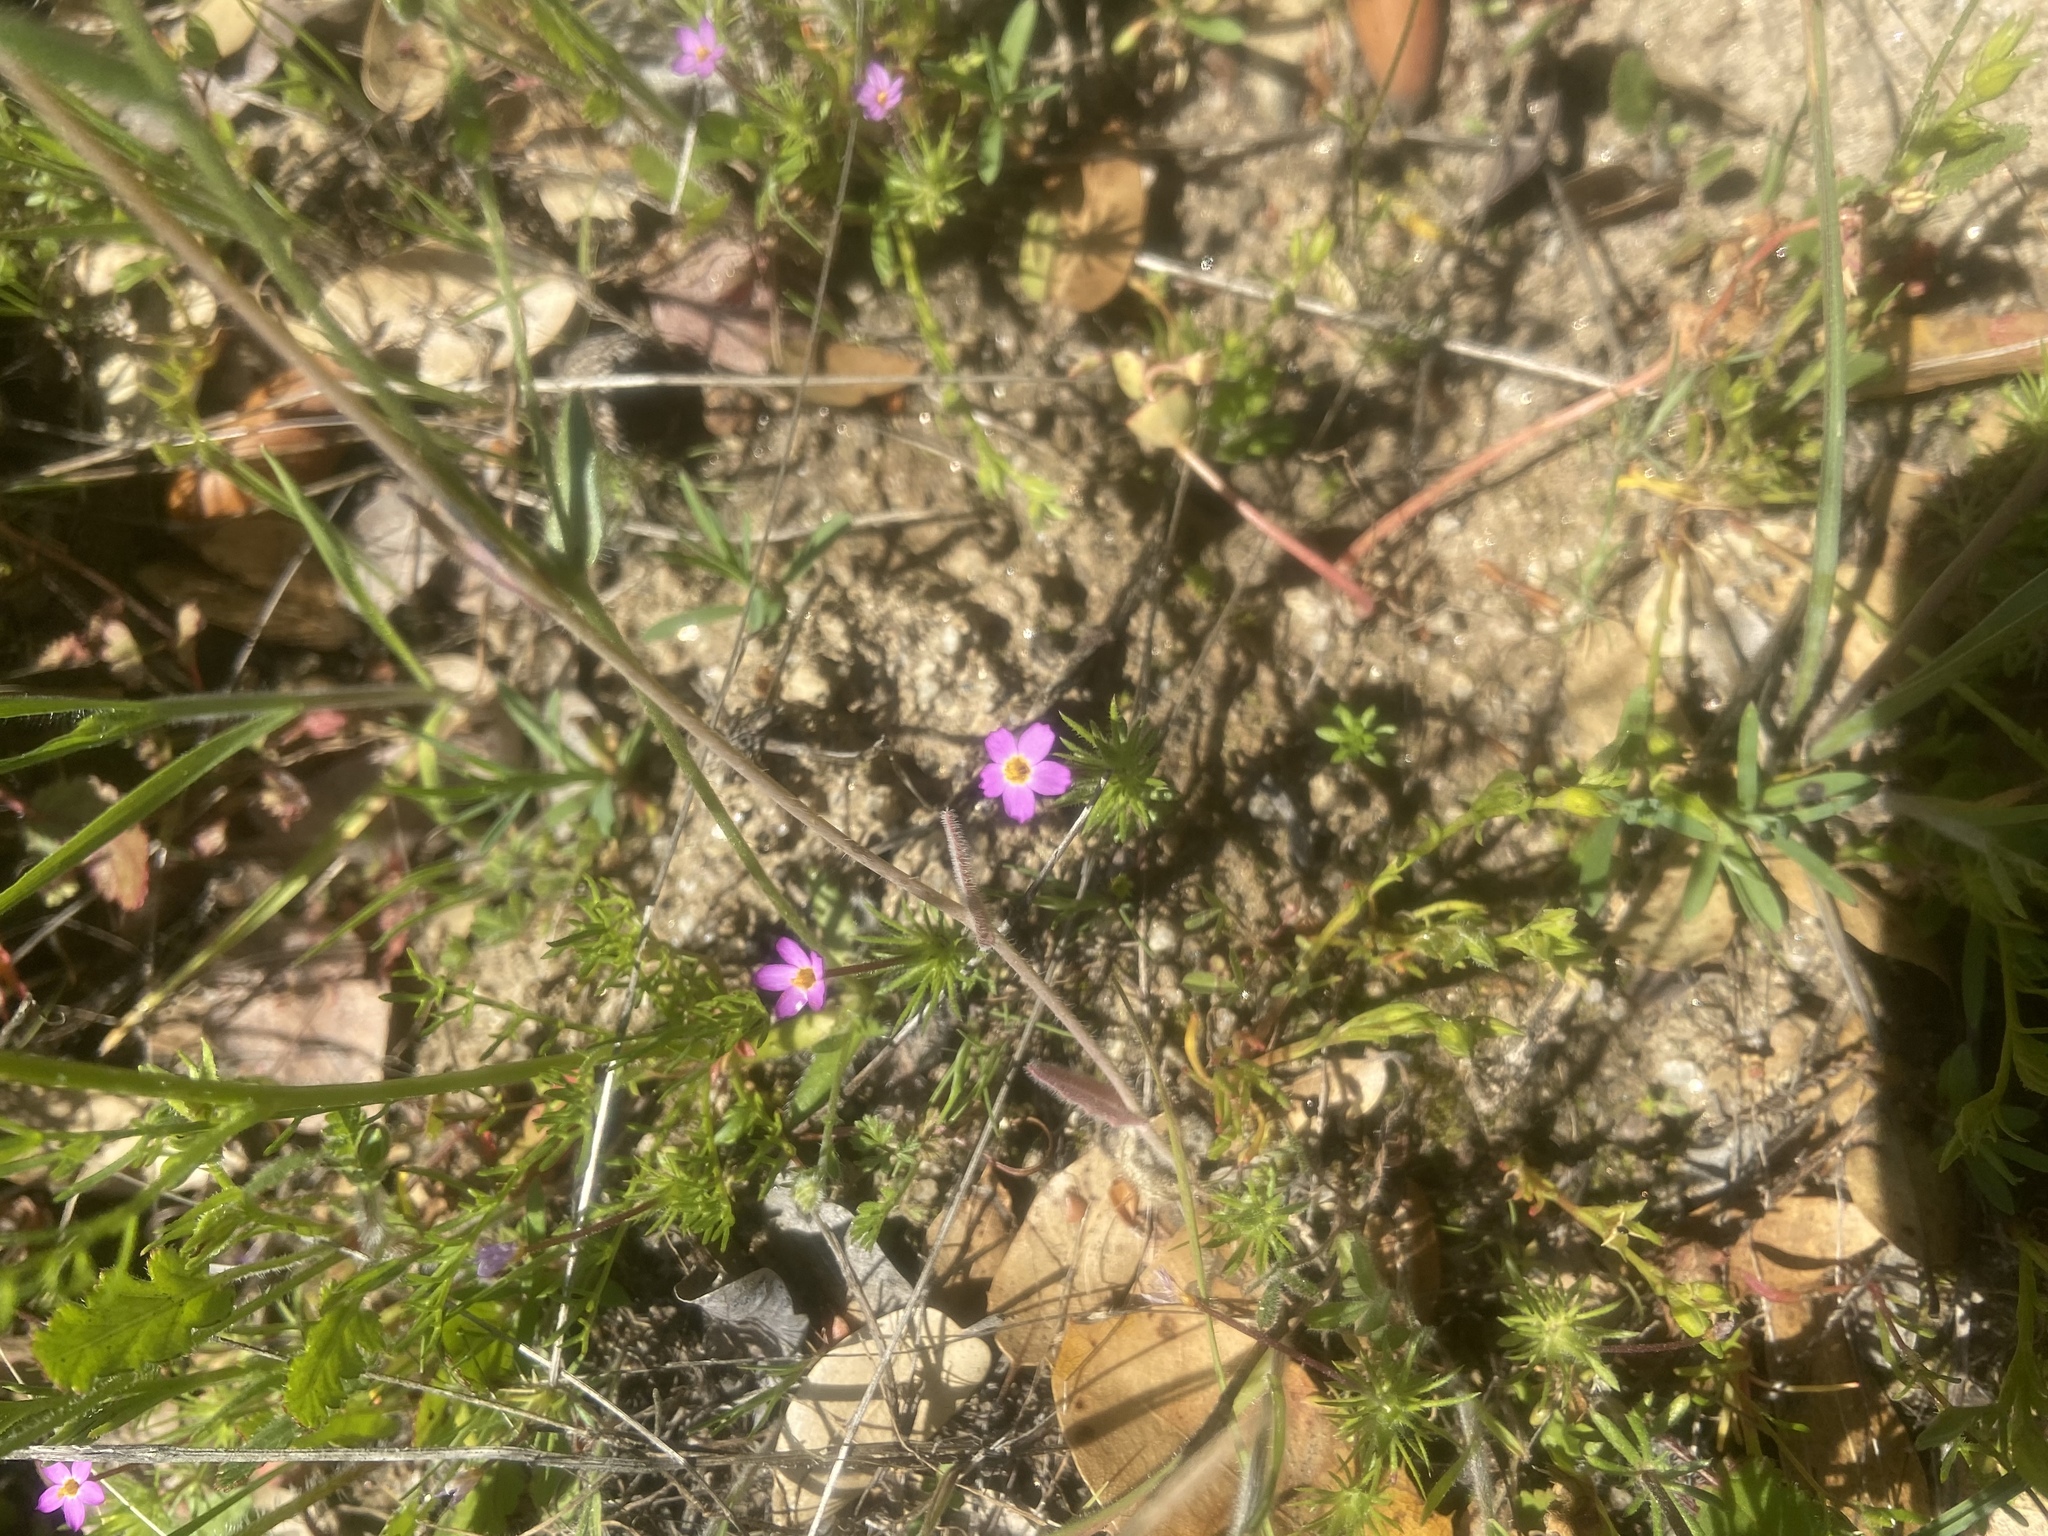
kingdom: Plantae
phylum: Tracheophyta
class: Magnoliopsida
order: Ericales
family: Polemoniaceae
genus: Leptosiphon
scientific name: Leptosiphon bicolor
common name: True babystars
